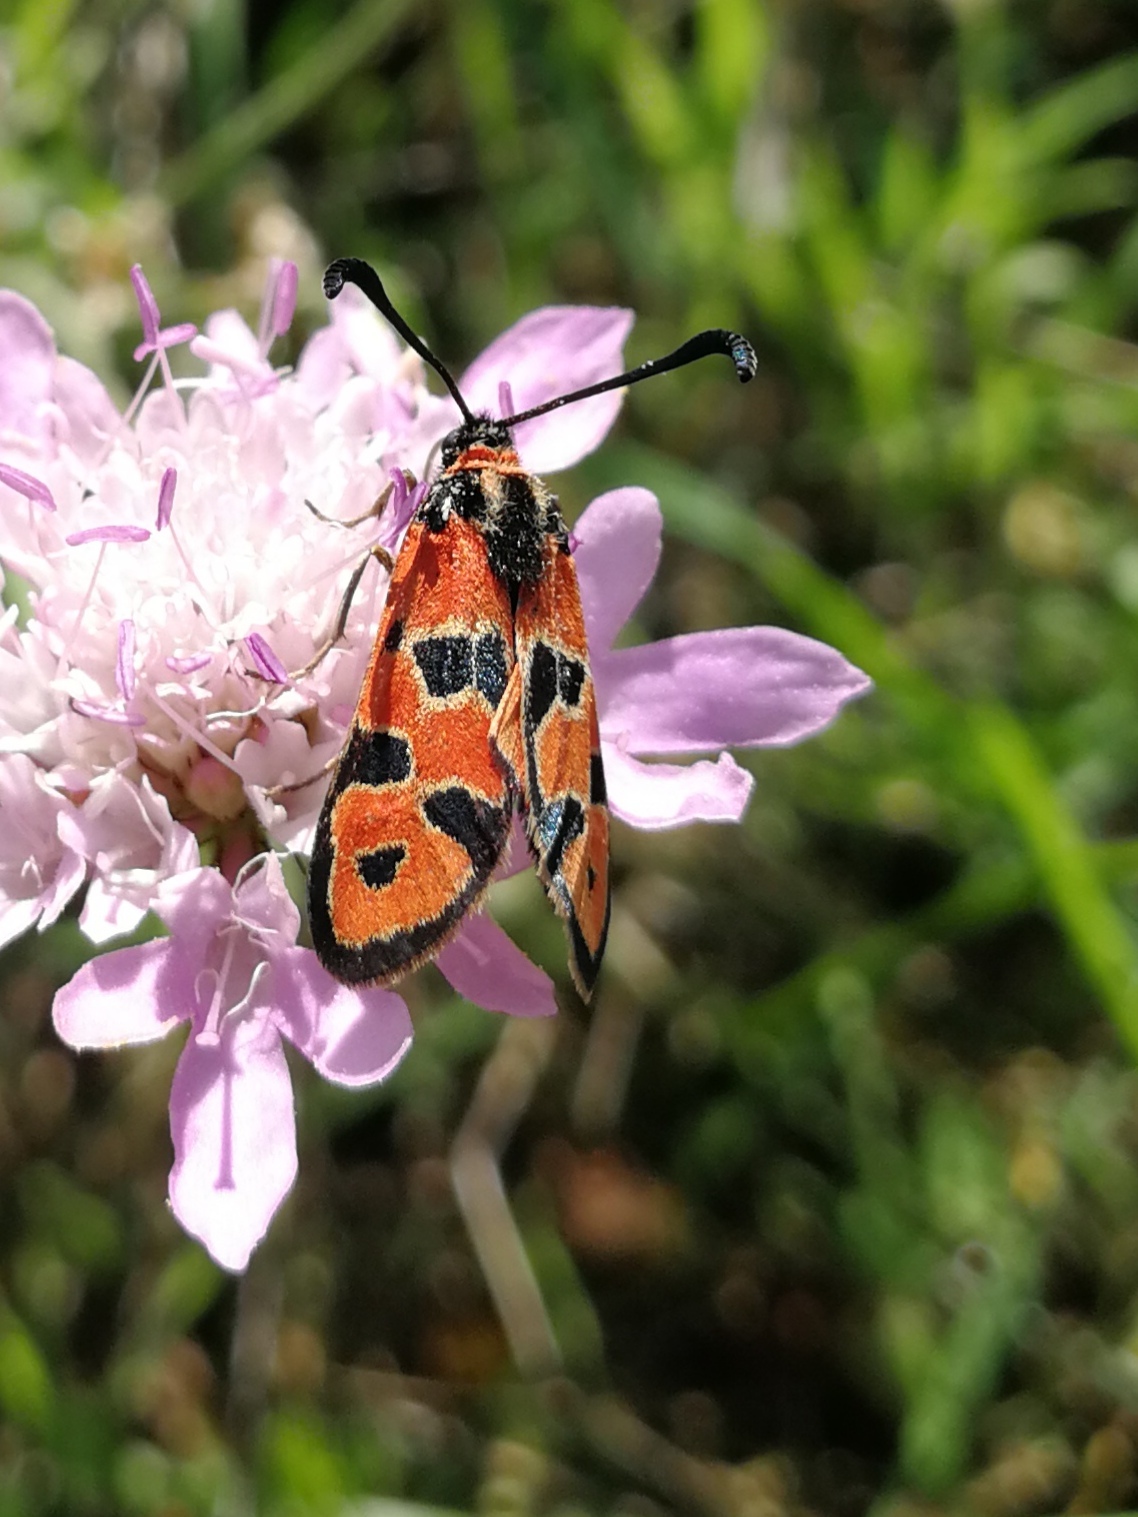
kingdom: Animalia
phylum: Arthropoda
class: Insecta
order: Lepidoptera
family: Zygaenidae
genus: Zygaena
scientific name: Zygaena fausta
